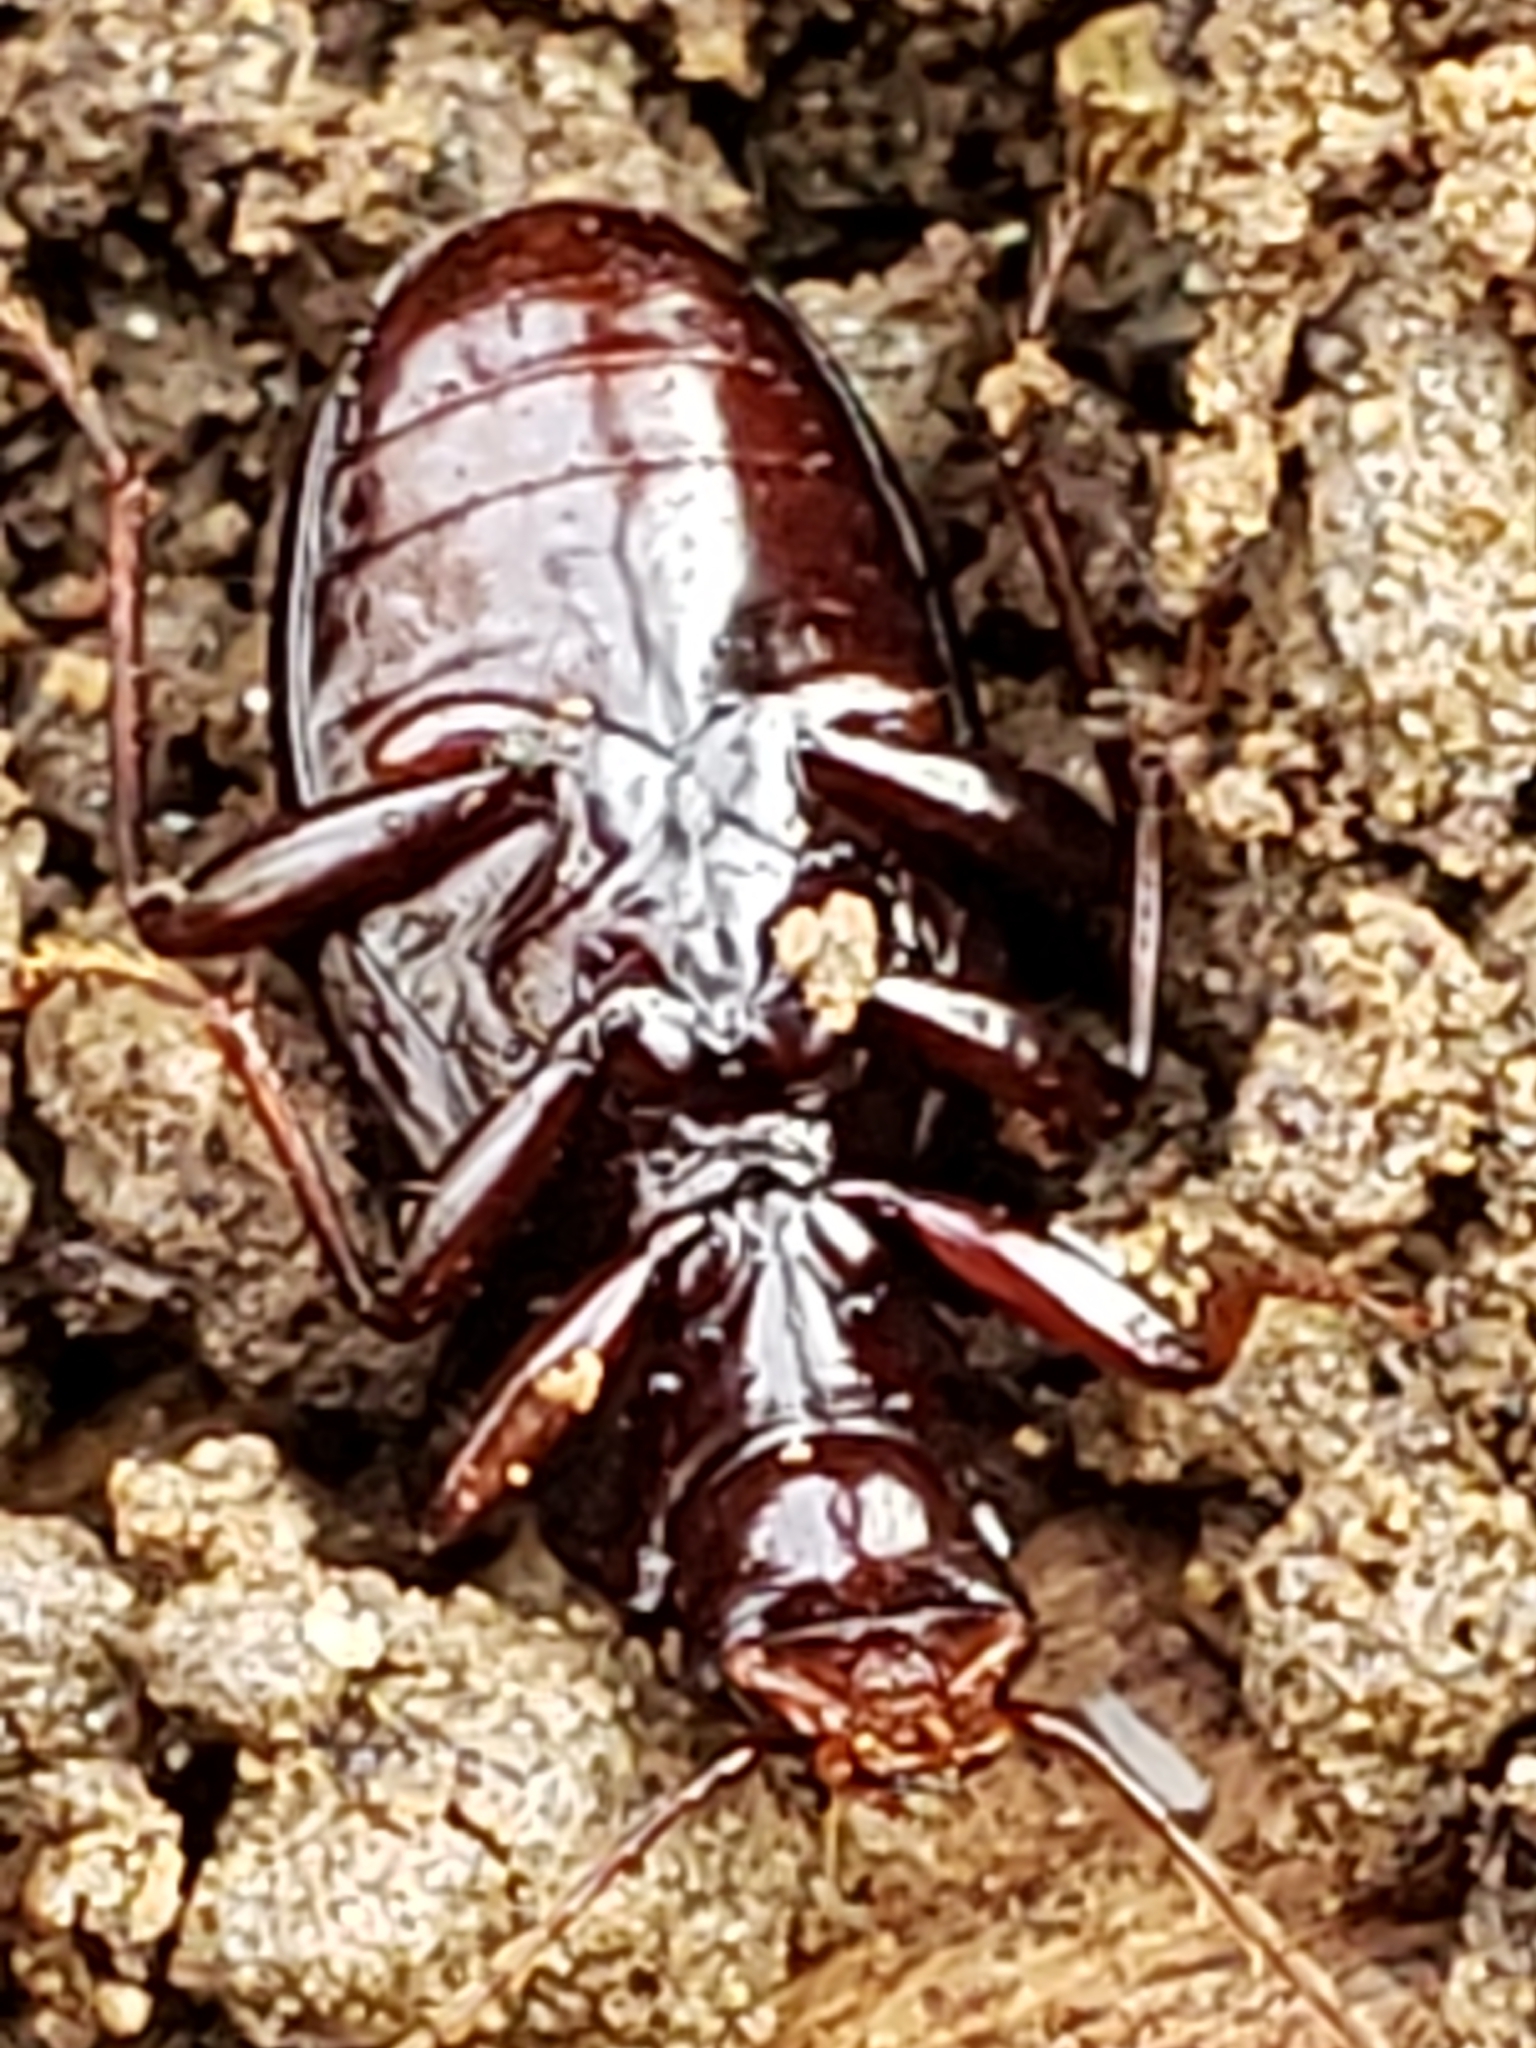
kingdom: Animalia
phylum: Arthropoda
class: Insecta
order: Coleoptera
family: Carabidae
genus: Gastrellarius
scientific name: Gastrellarius honestus
